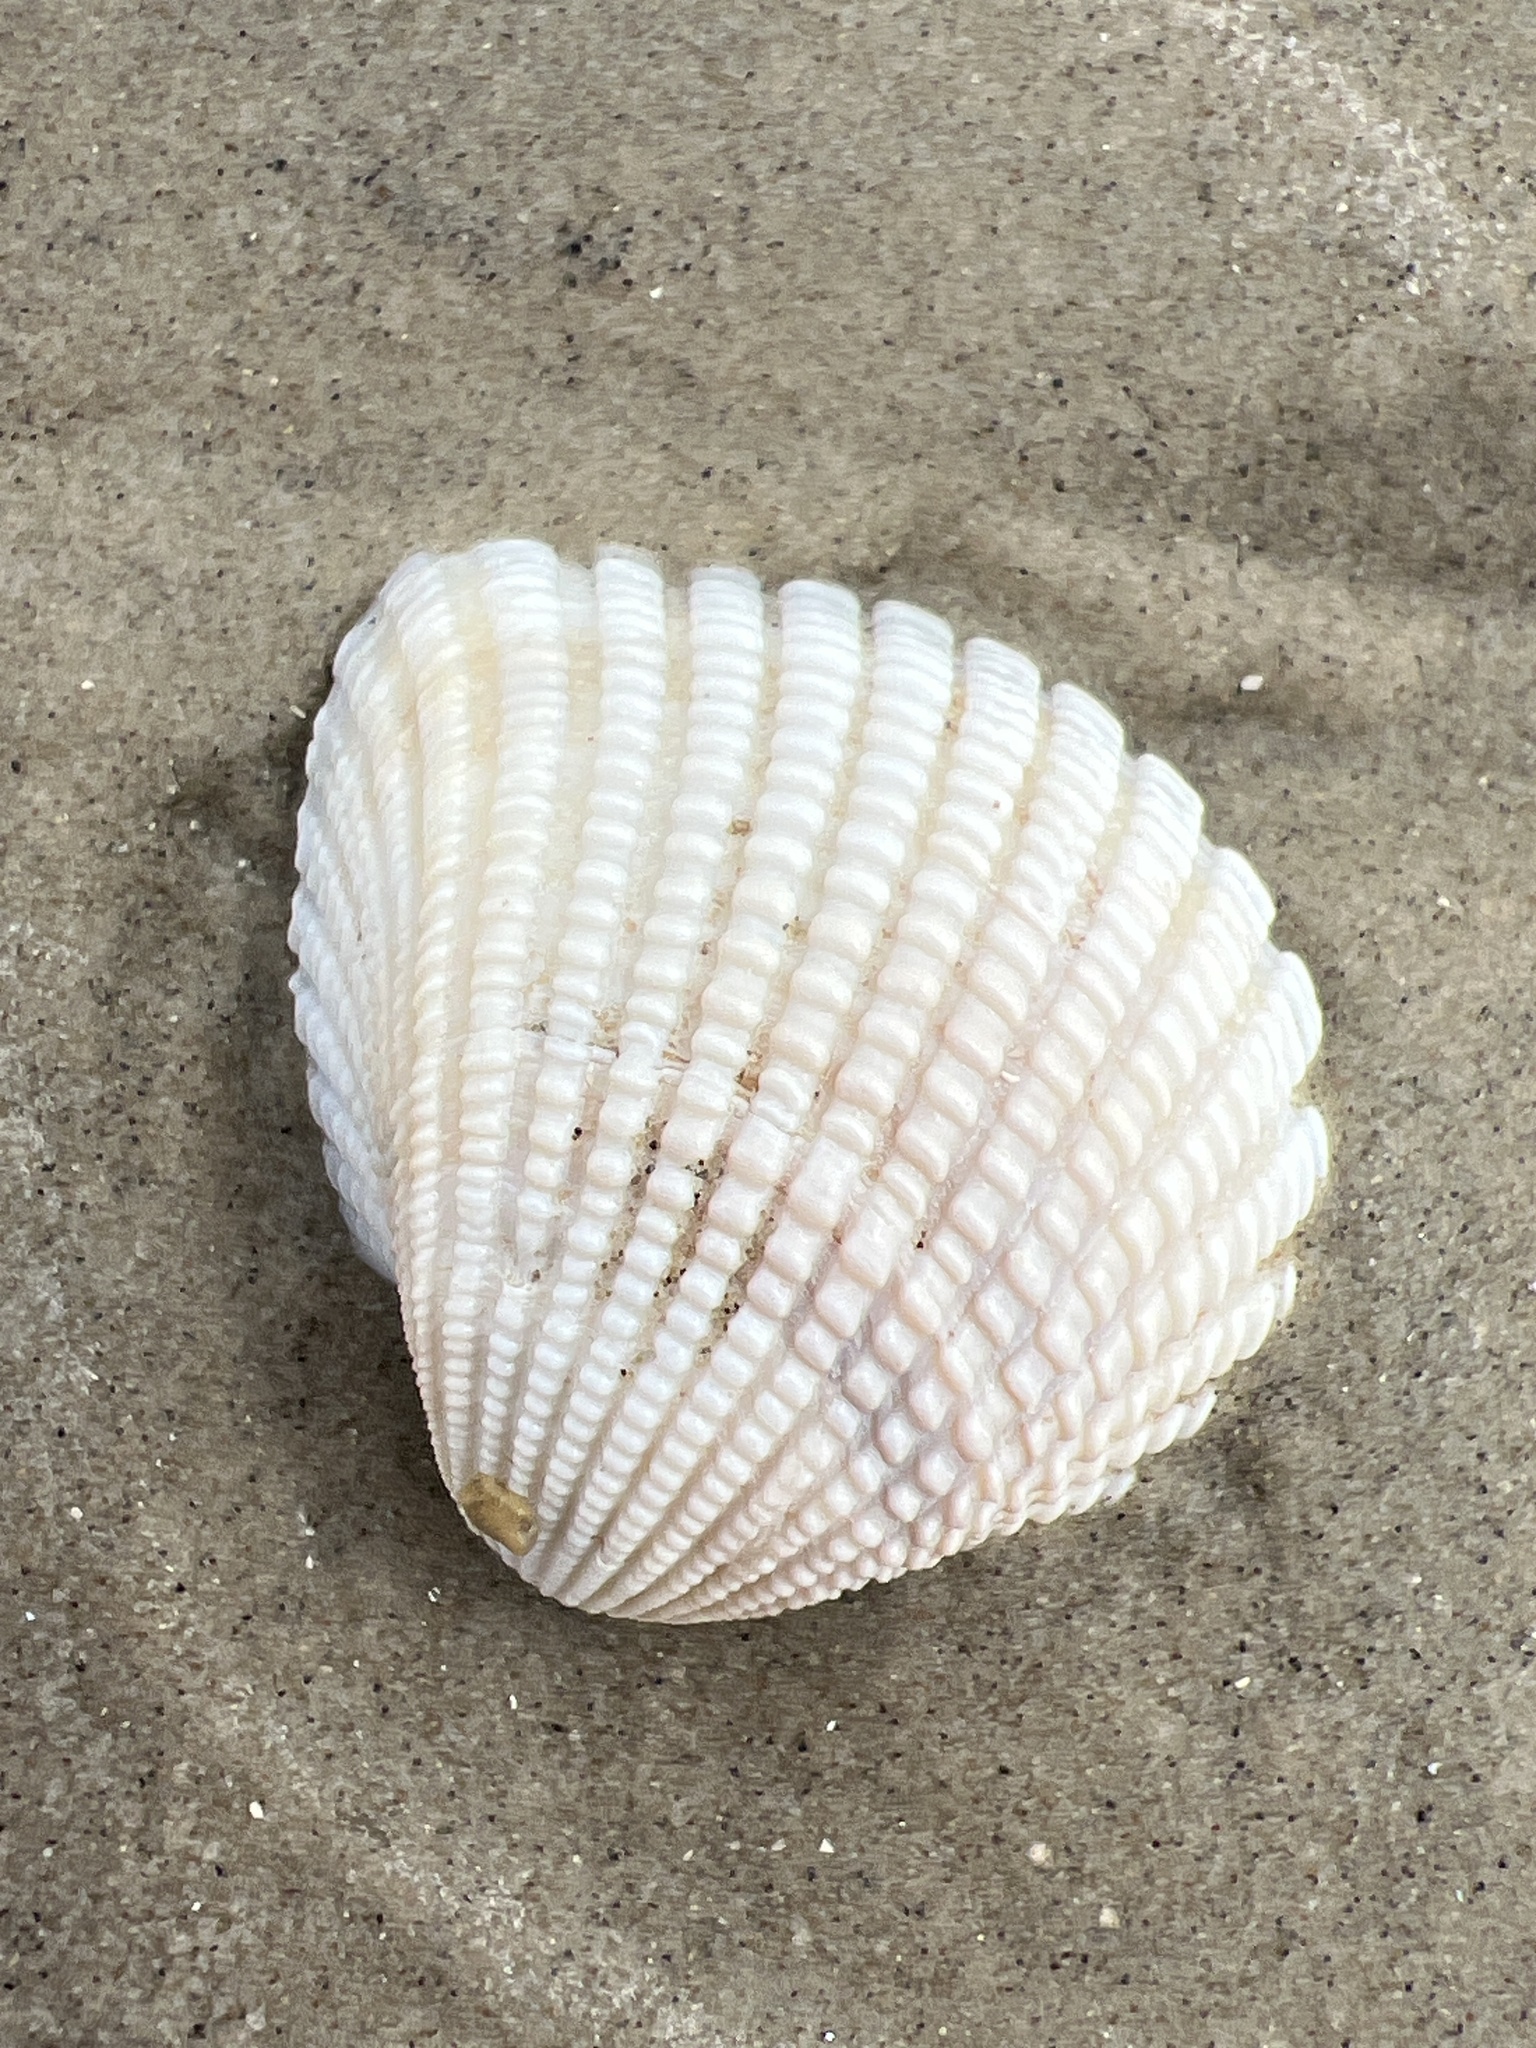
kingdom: Animalia
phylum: Mollusca
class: Bivalvia
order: Arcida
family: Arcidae
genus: Anadara
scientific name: Anadara brasiliana
